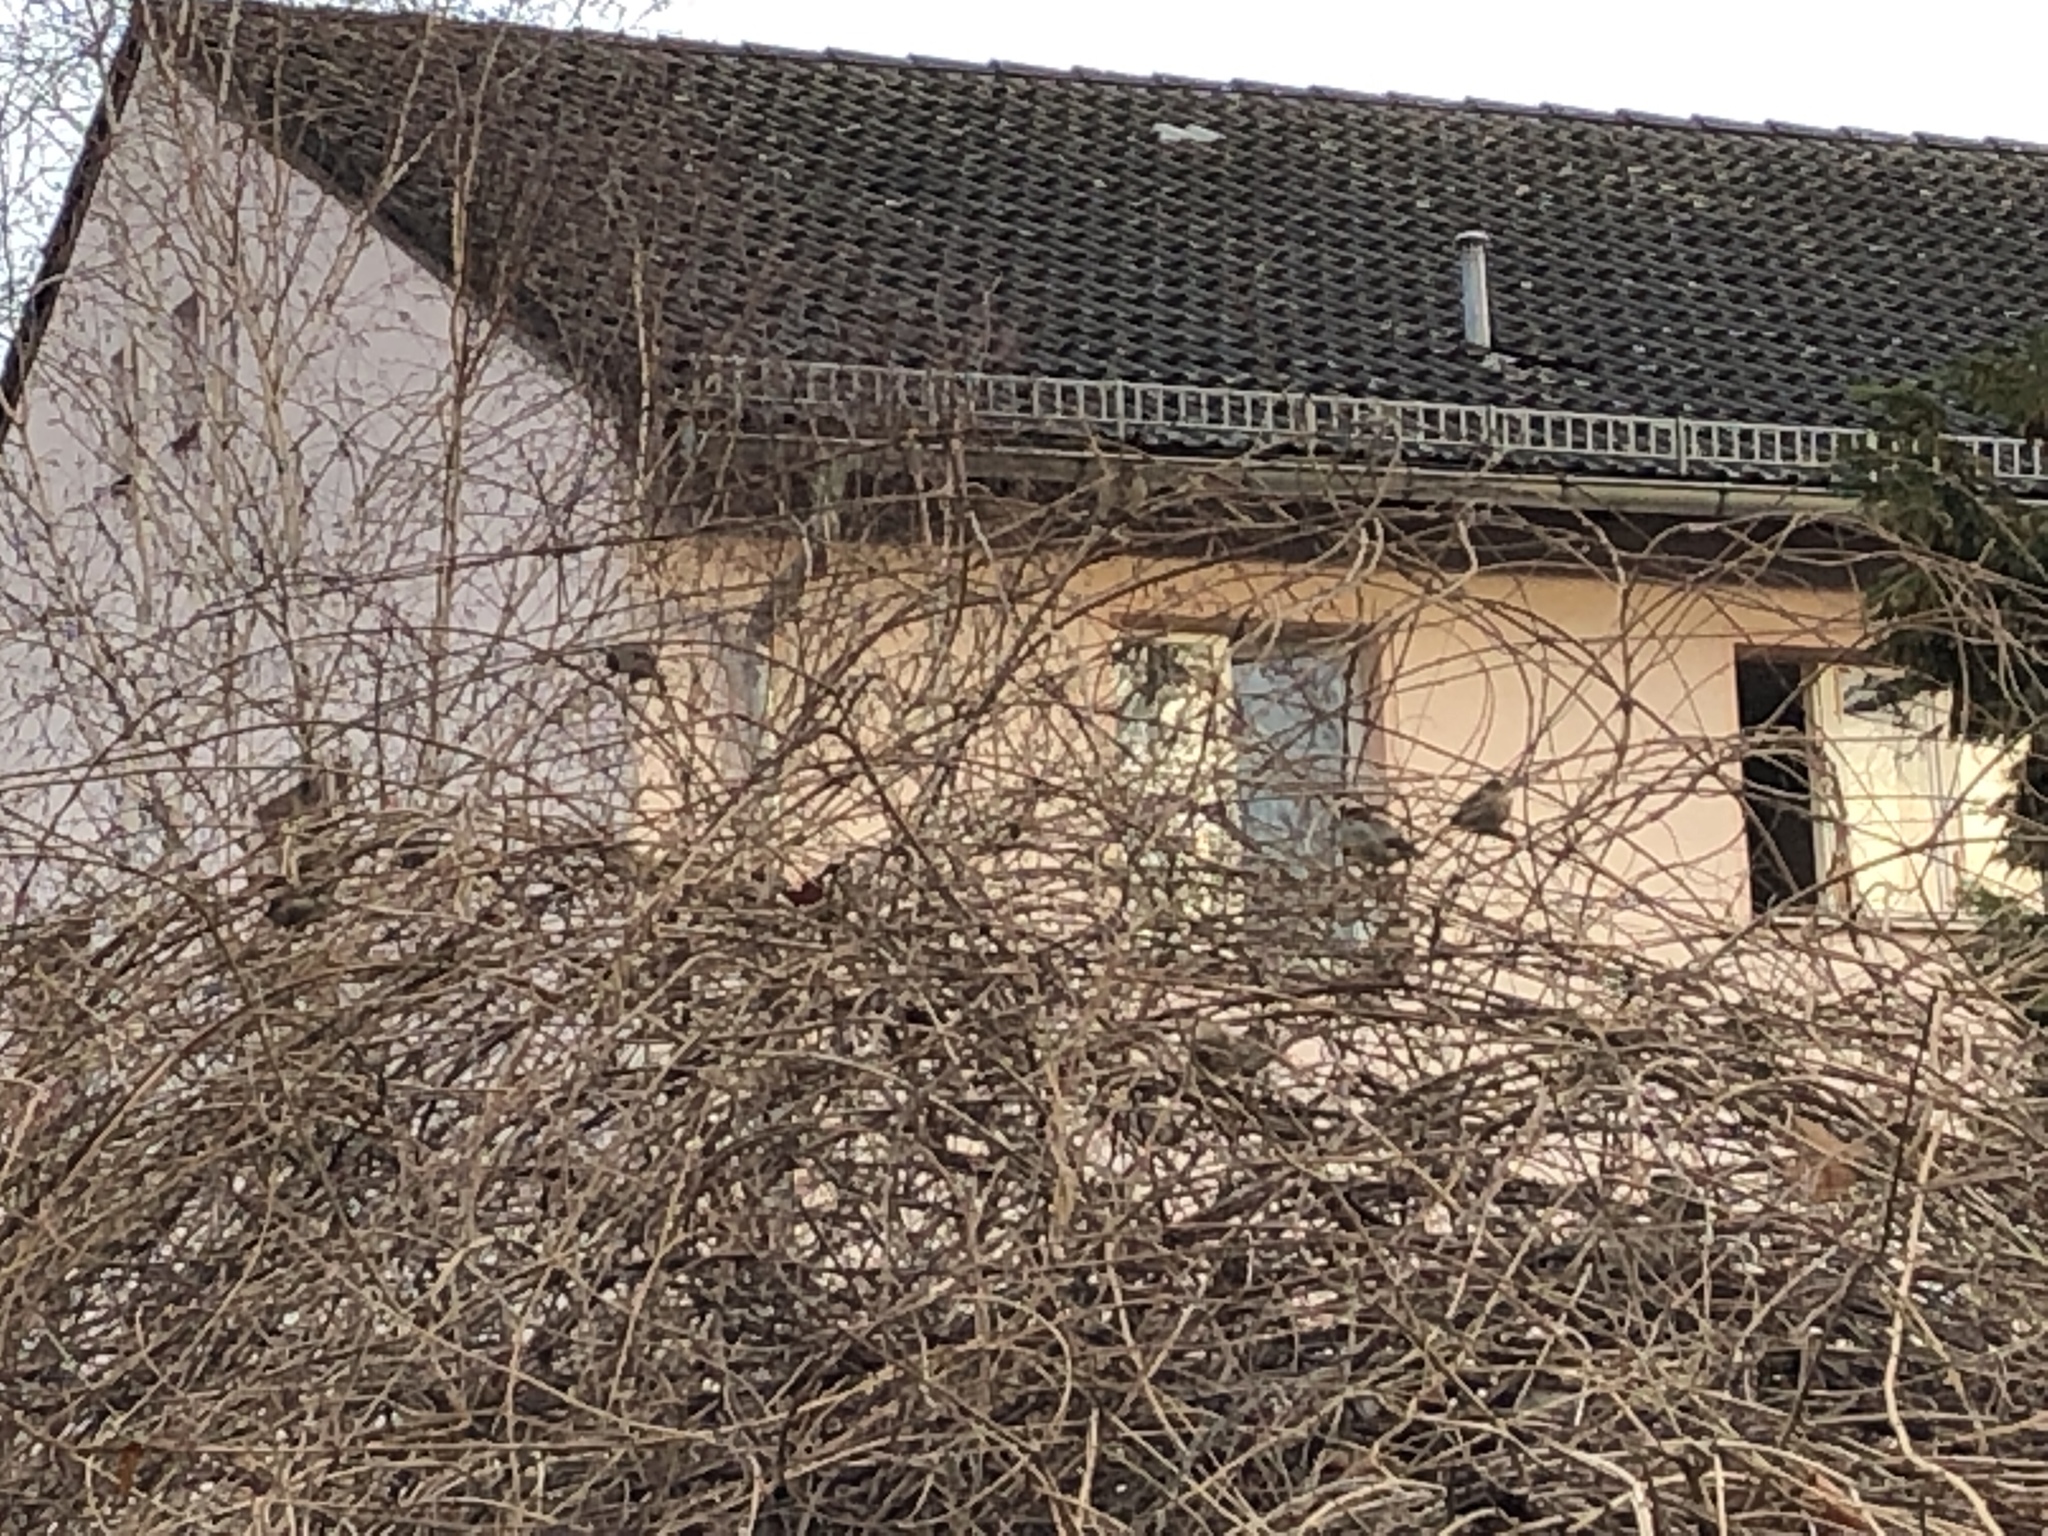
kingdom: Animalia
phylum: Chordata
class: Aves
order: Passeriformes
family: Passeridae
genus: Passer
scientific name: Passer domesticus
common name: House sparrow
